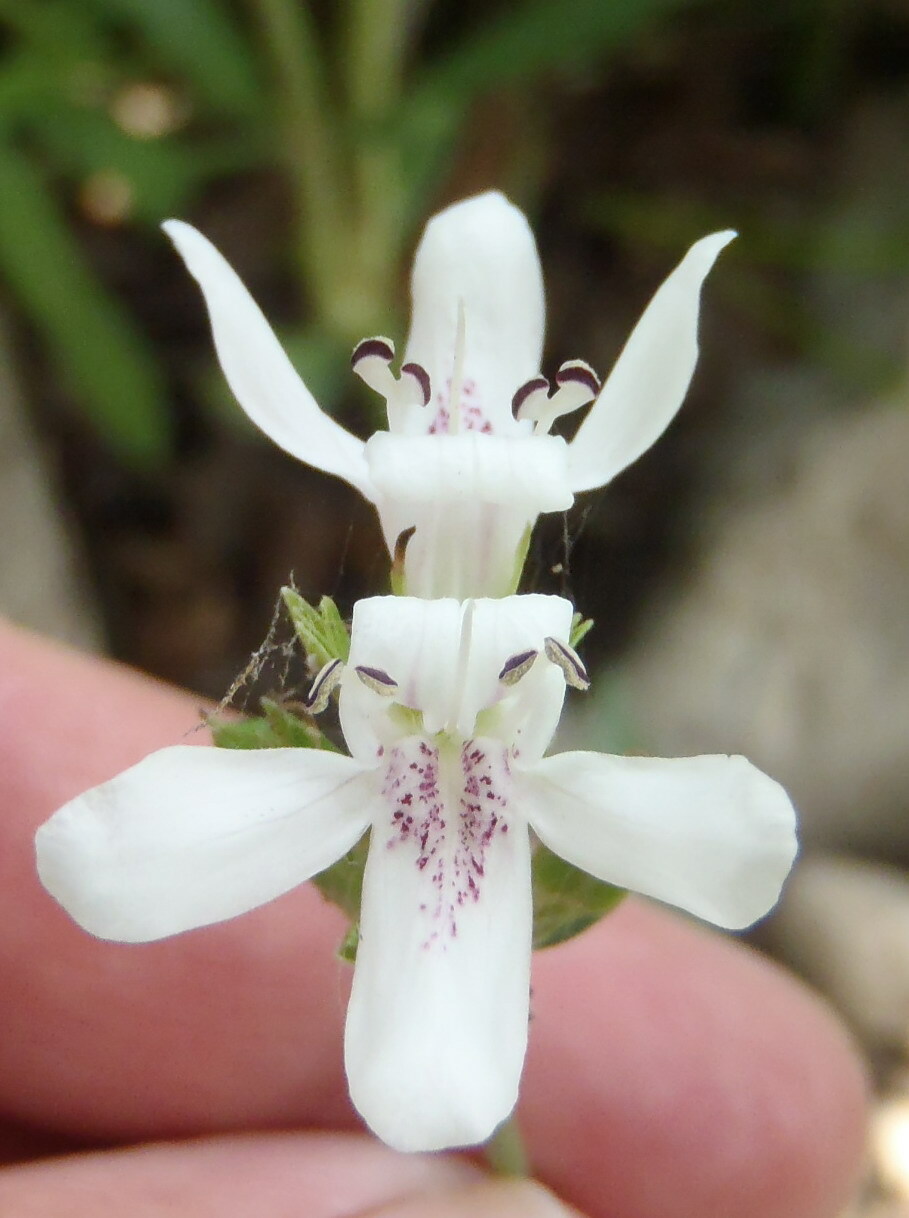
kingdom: Plantae
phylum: Tracheophyta
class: Magnoliopsida
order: Lamiales
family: Acanthaceae
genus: Dianthera
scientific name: Dianthera americana
